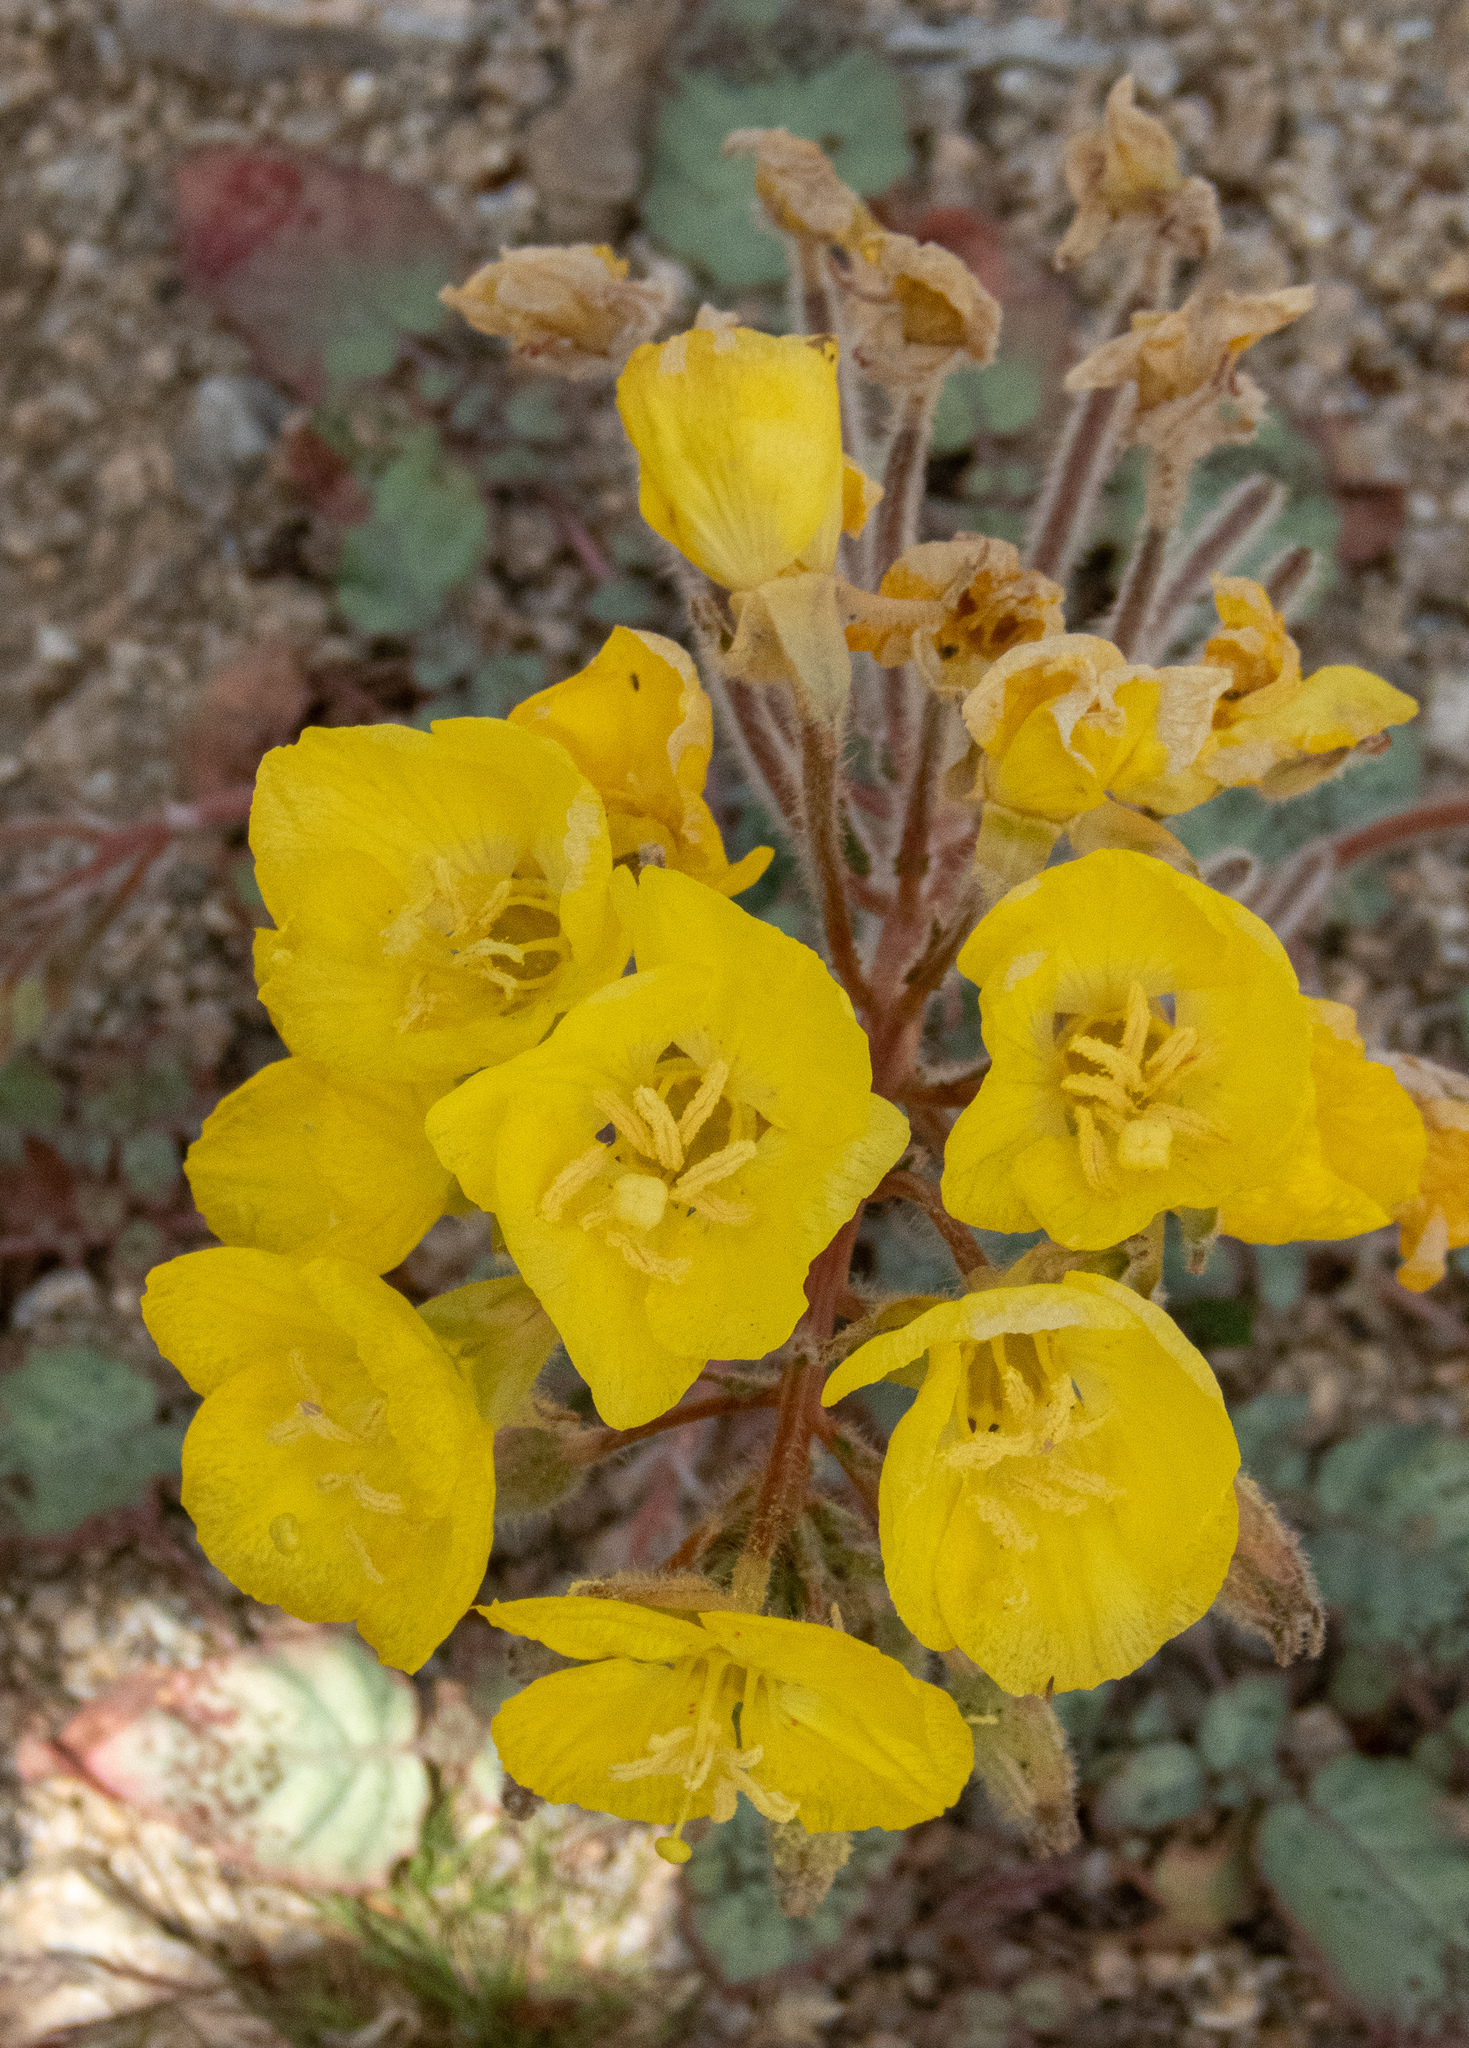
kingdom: Plantae
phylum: Tracheophyta
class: Magnoliopsida
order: Myrtales
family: Onagraceae
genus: Chylismia
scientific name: Chylismia brevipes
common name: Yellow cups
